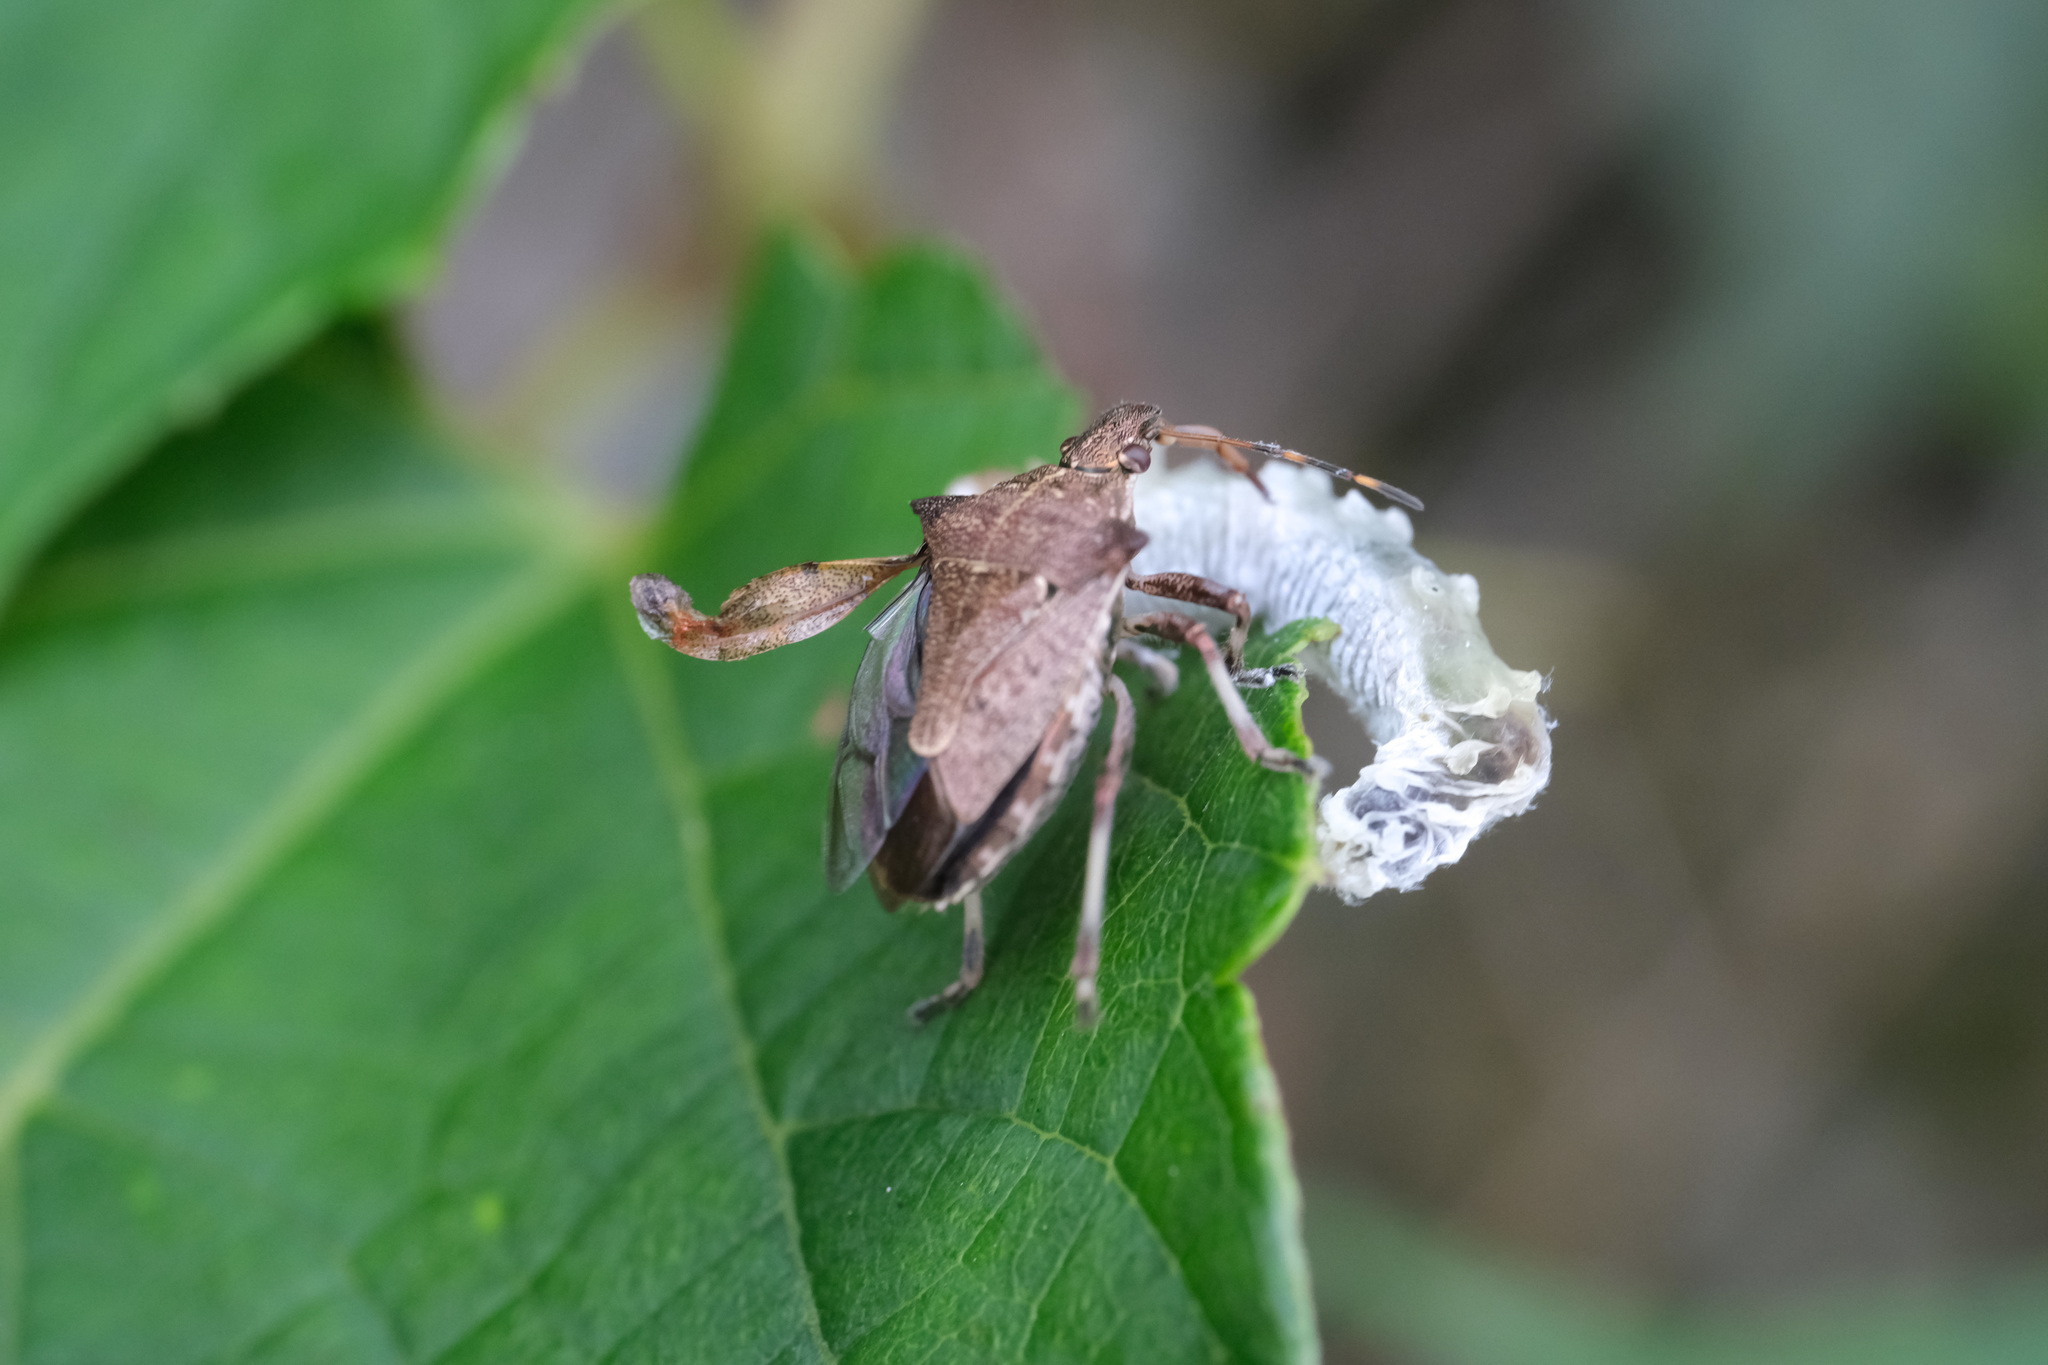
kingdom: Animalia
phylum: Arthropoda
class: Insecta
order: Hemiptera
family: Pentatomidae
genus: Picromerus
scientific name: Picromerus viridipunctatus
